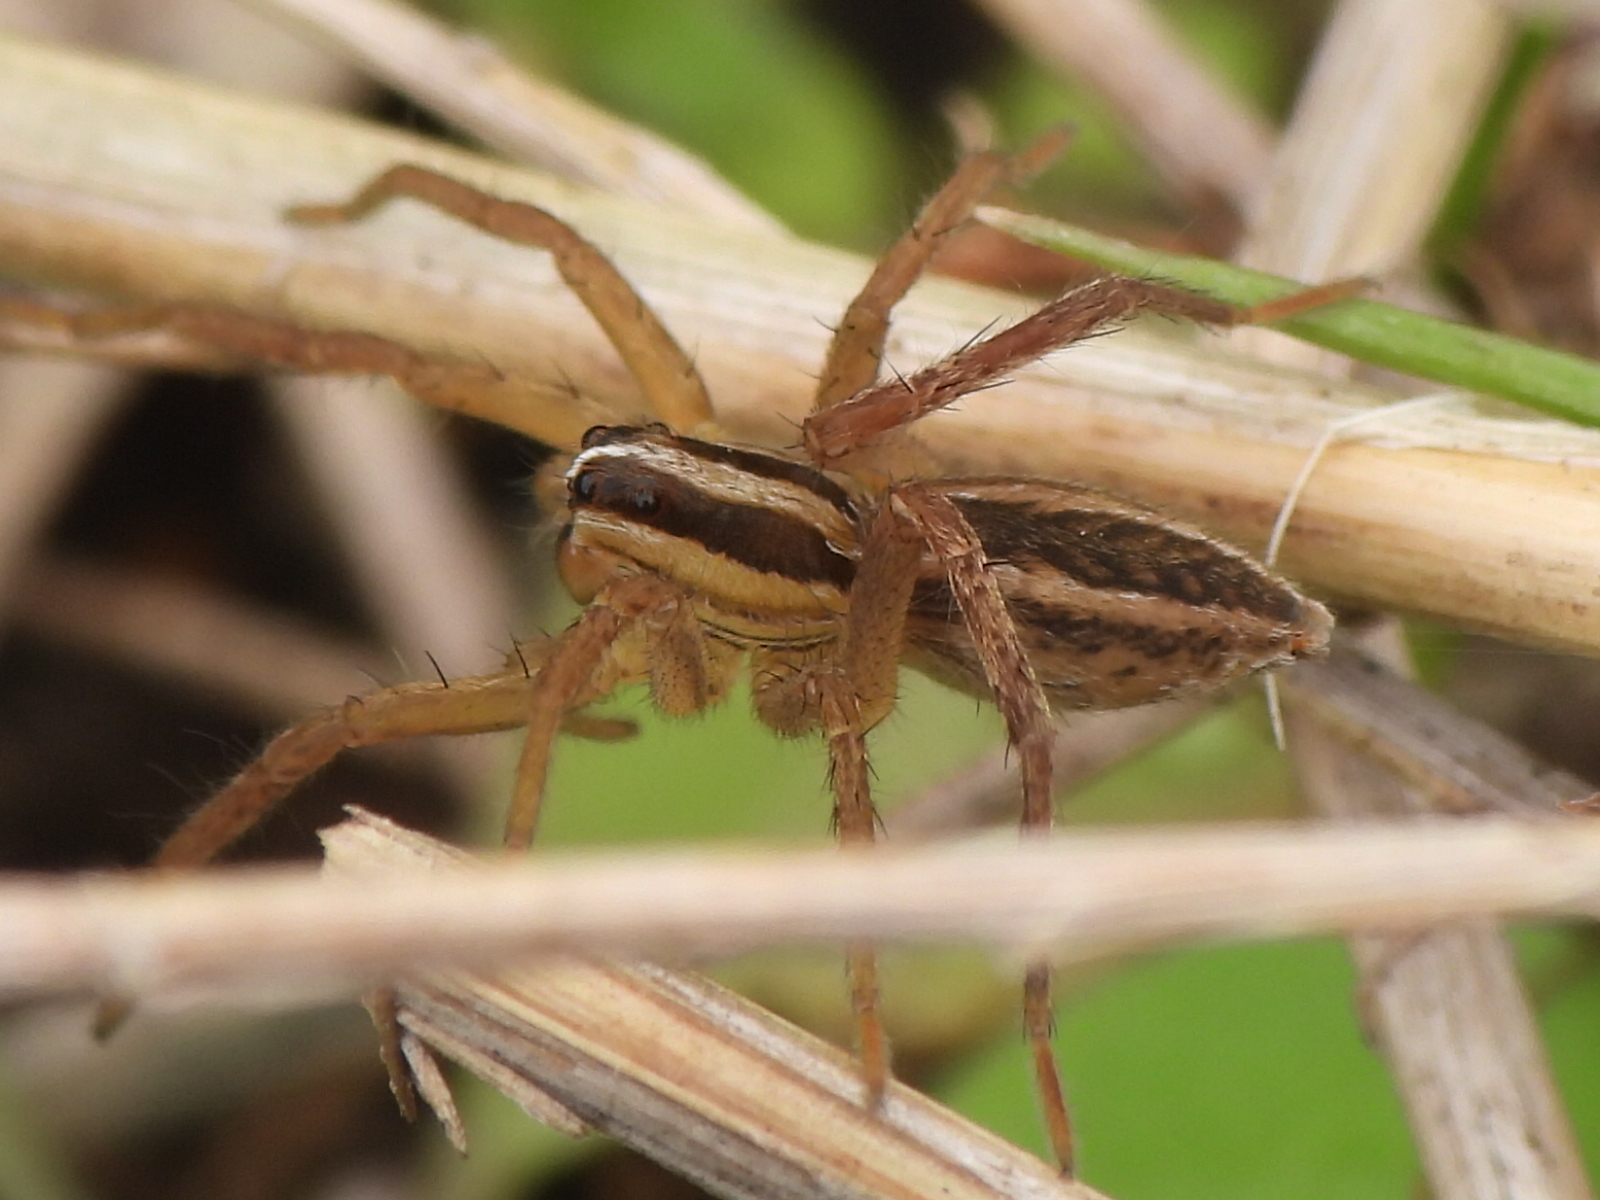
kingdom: Animalia
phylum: Arthropoda
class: Arachnida
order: Araneae
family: Lycosidae
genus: Rabidosa
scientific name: Rabidosa rabida
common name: Rabid wolf spider
